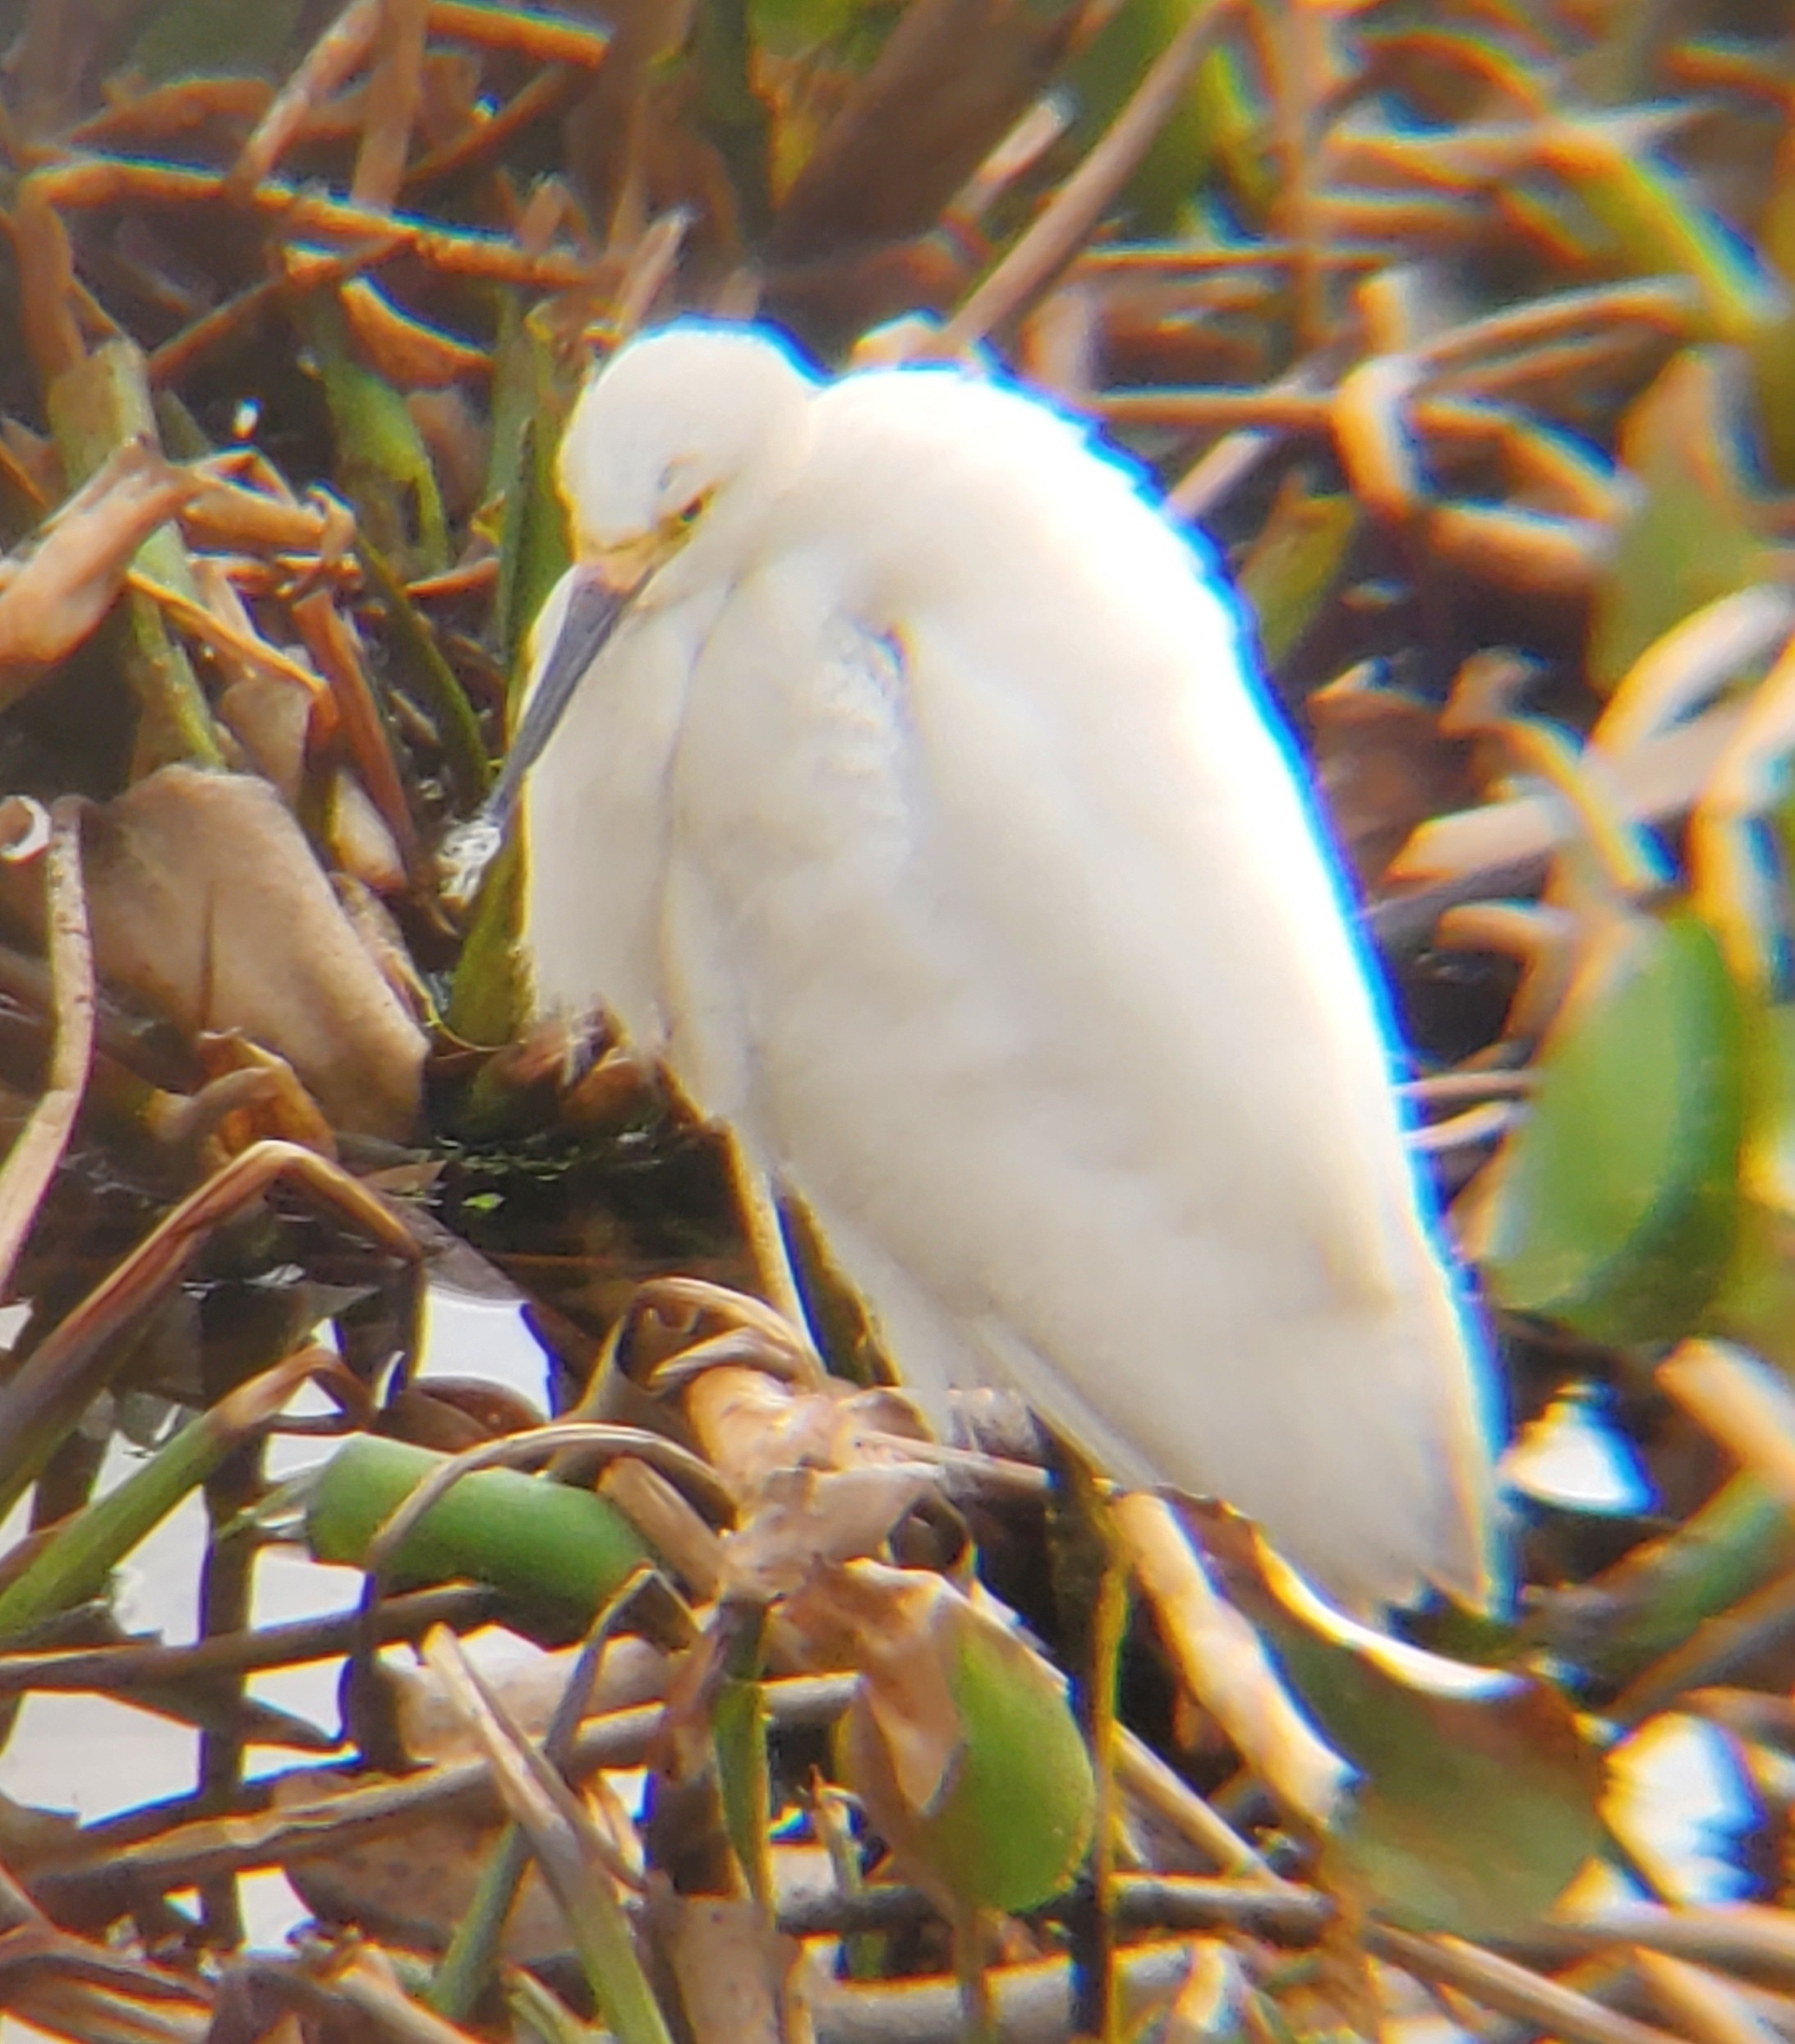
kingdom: Animalia
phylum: Chordata
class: Aves
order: Pelecaniformes
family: Ardeidae
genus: Egretta
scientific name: Egretta thula
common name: Snowy egret
